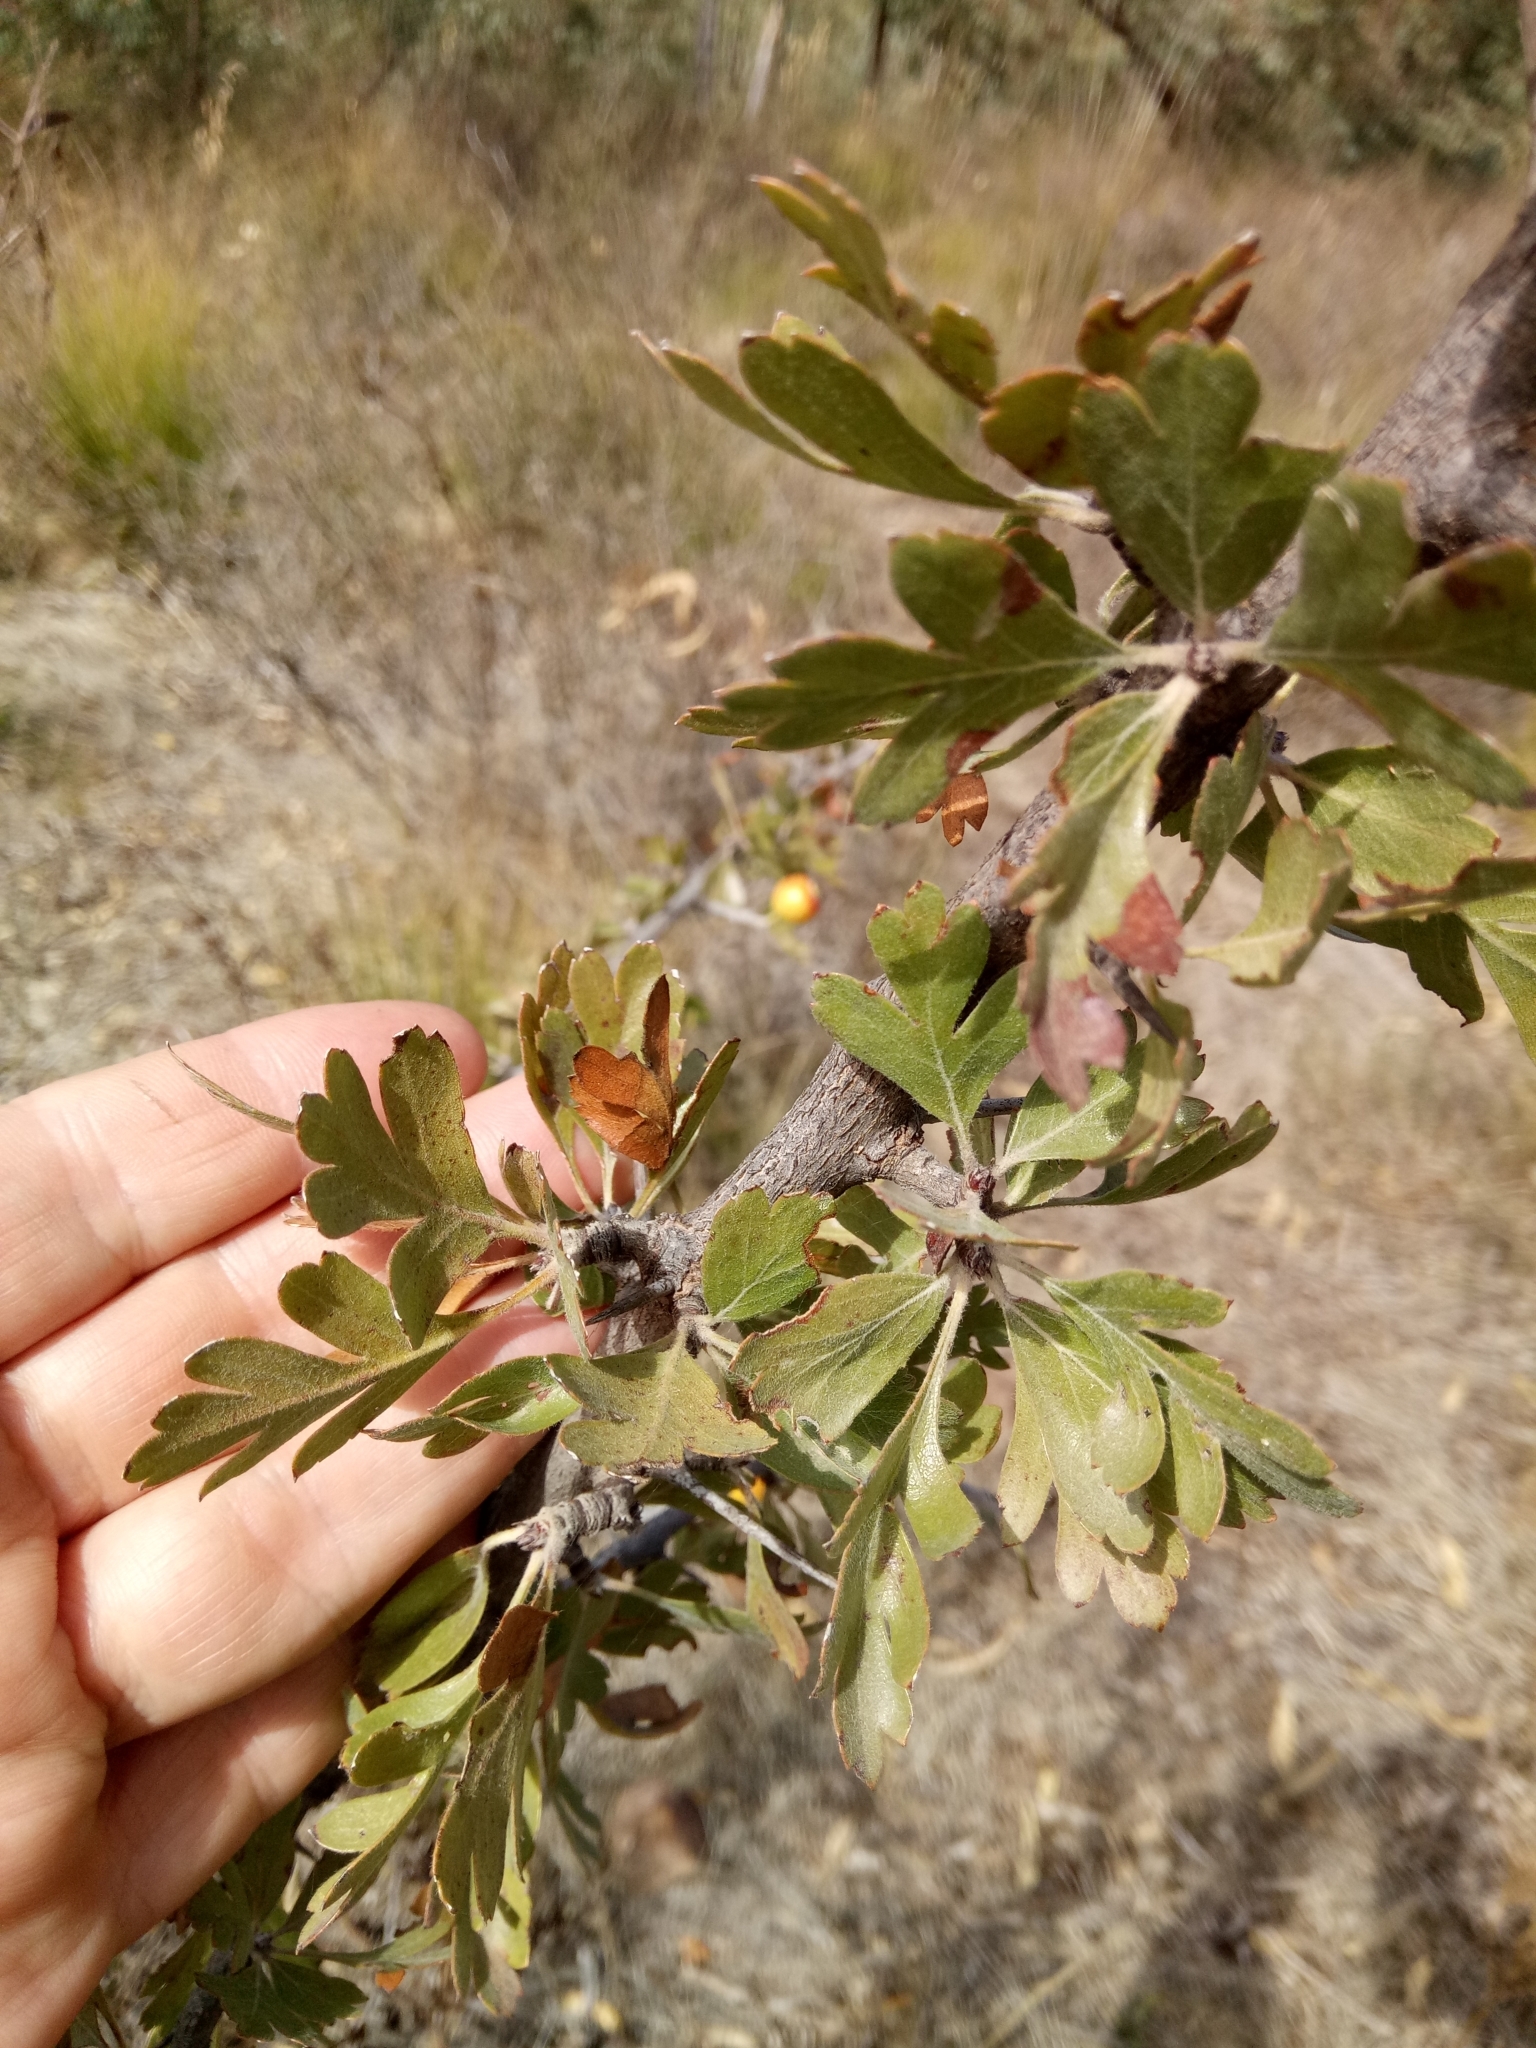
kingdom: Plantae
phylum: Tracheophyta
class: Magnoliopsida
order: Rosales
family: Rosaceae
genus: Crataegus
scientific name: Crataegus azarolus
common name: Azarole
